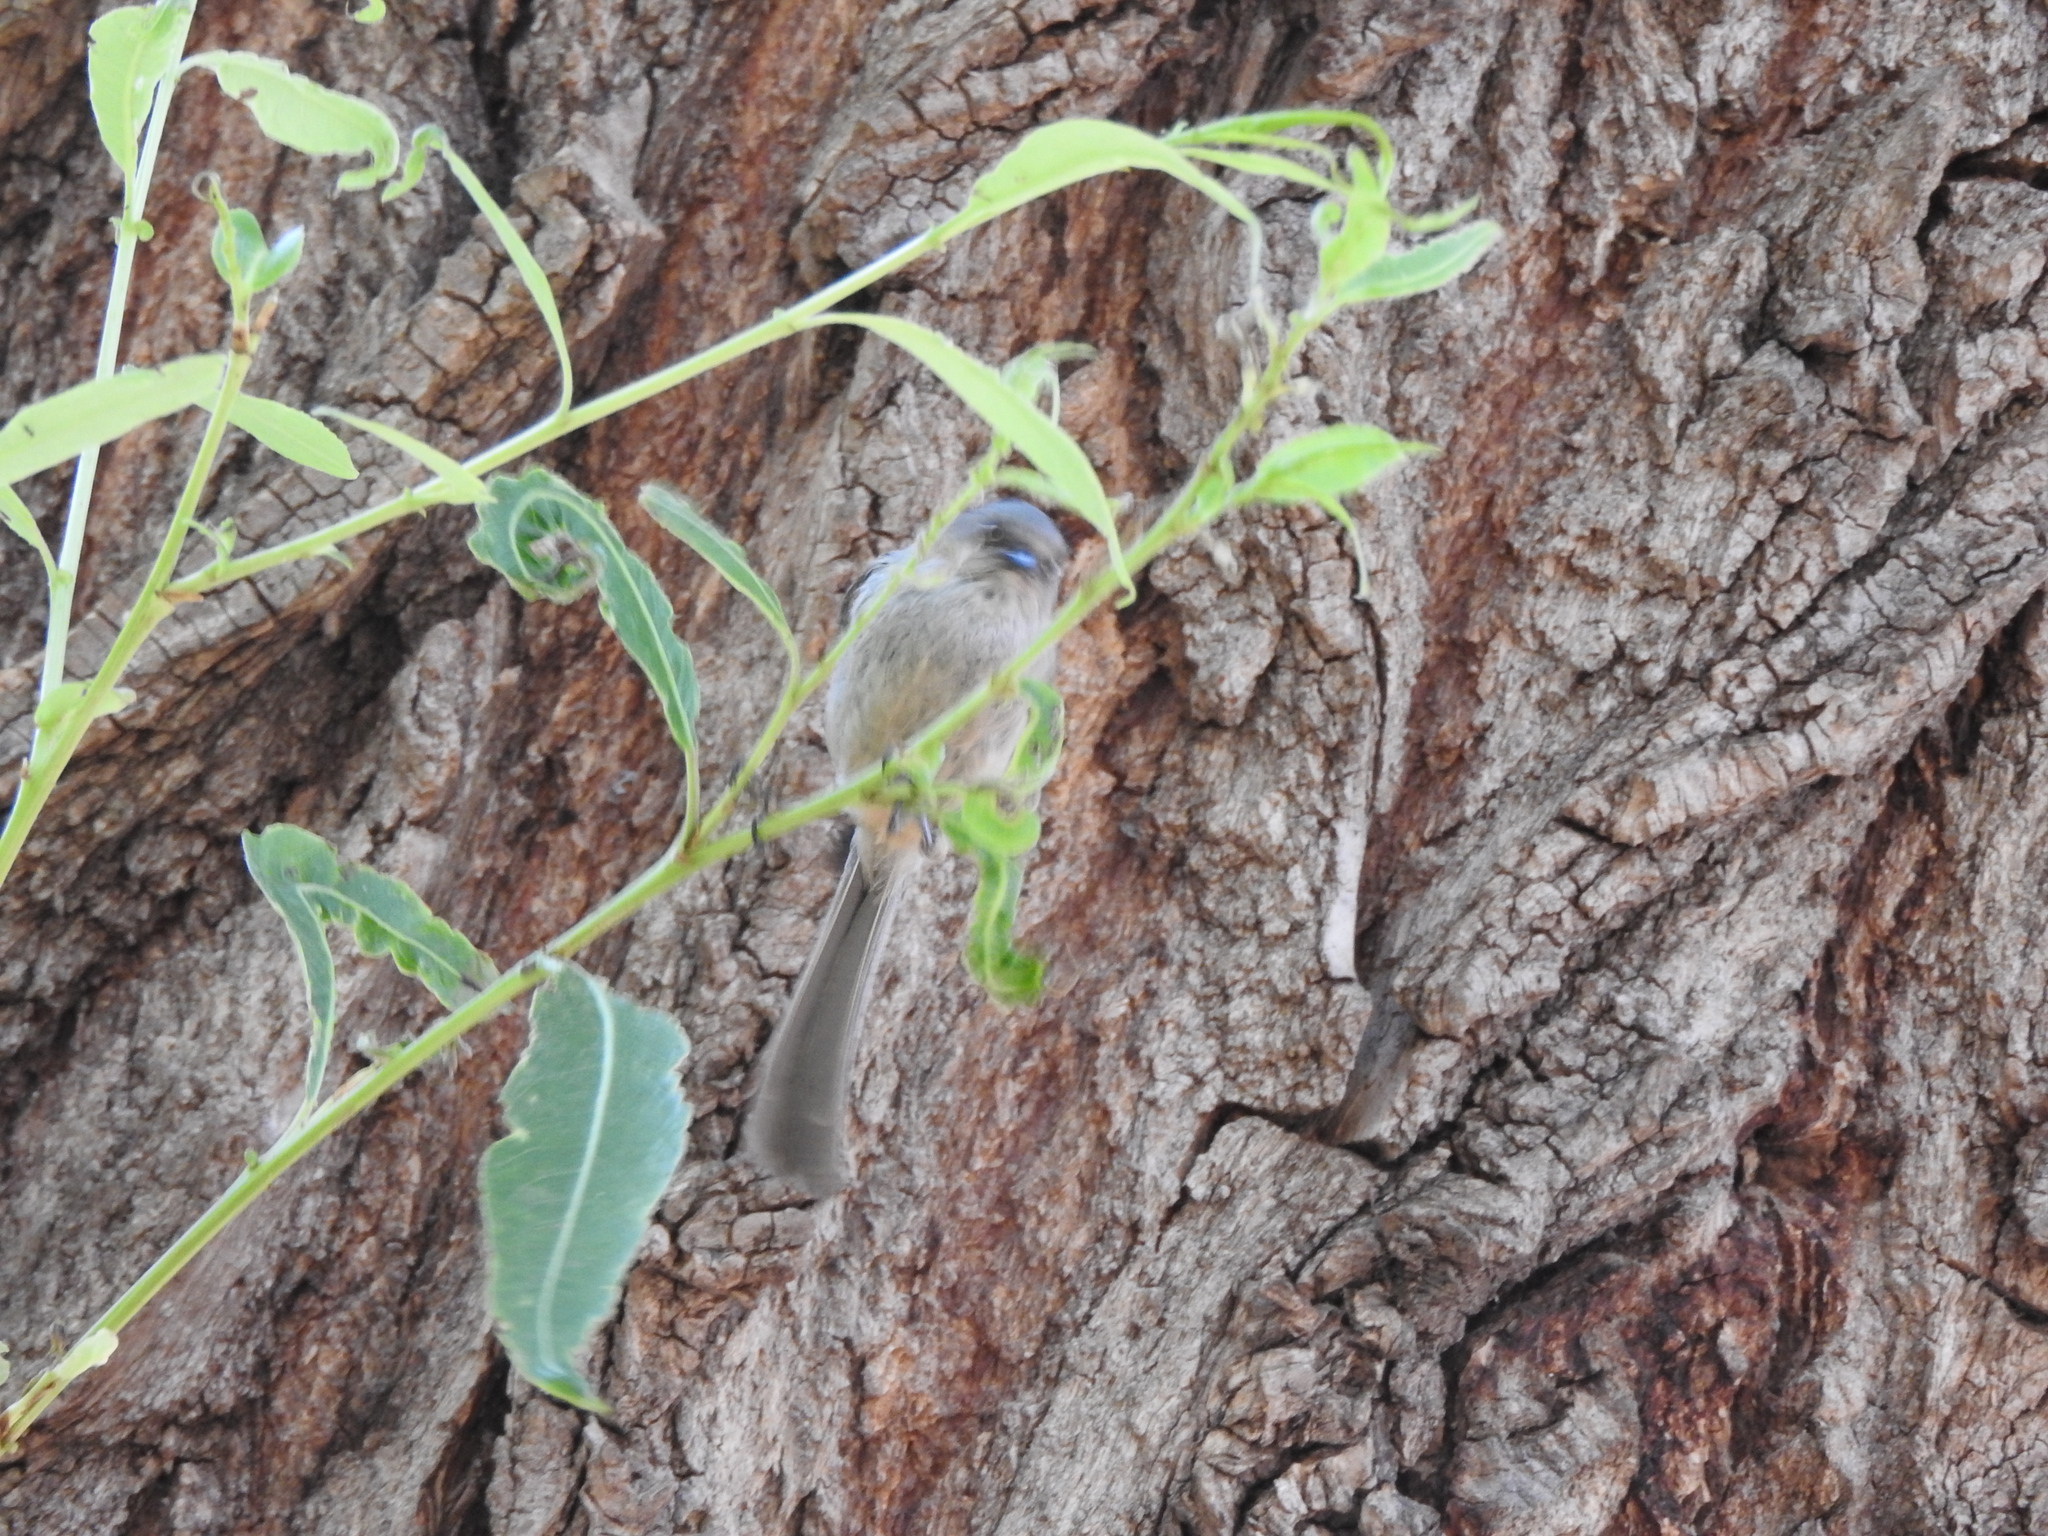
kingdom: Animalia
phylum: Chordata
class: Aves
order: Passeriformes
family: Aegithalidae
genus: Psaltriparus
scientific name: Psaltriparus minimus
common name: American bushtit
